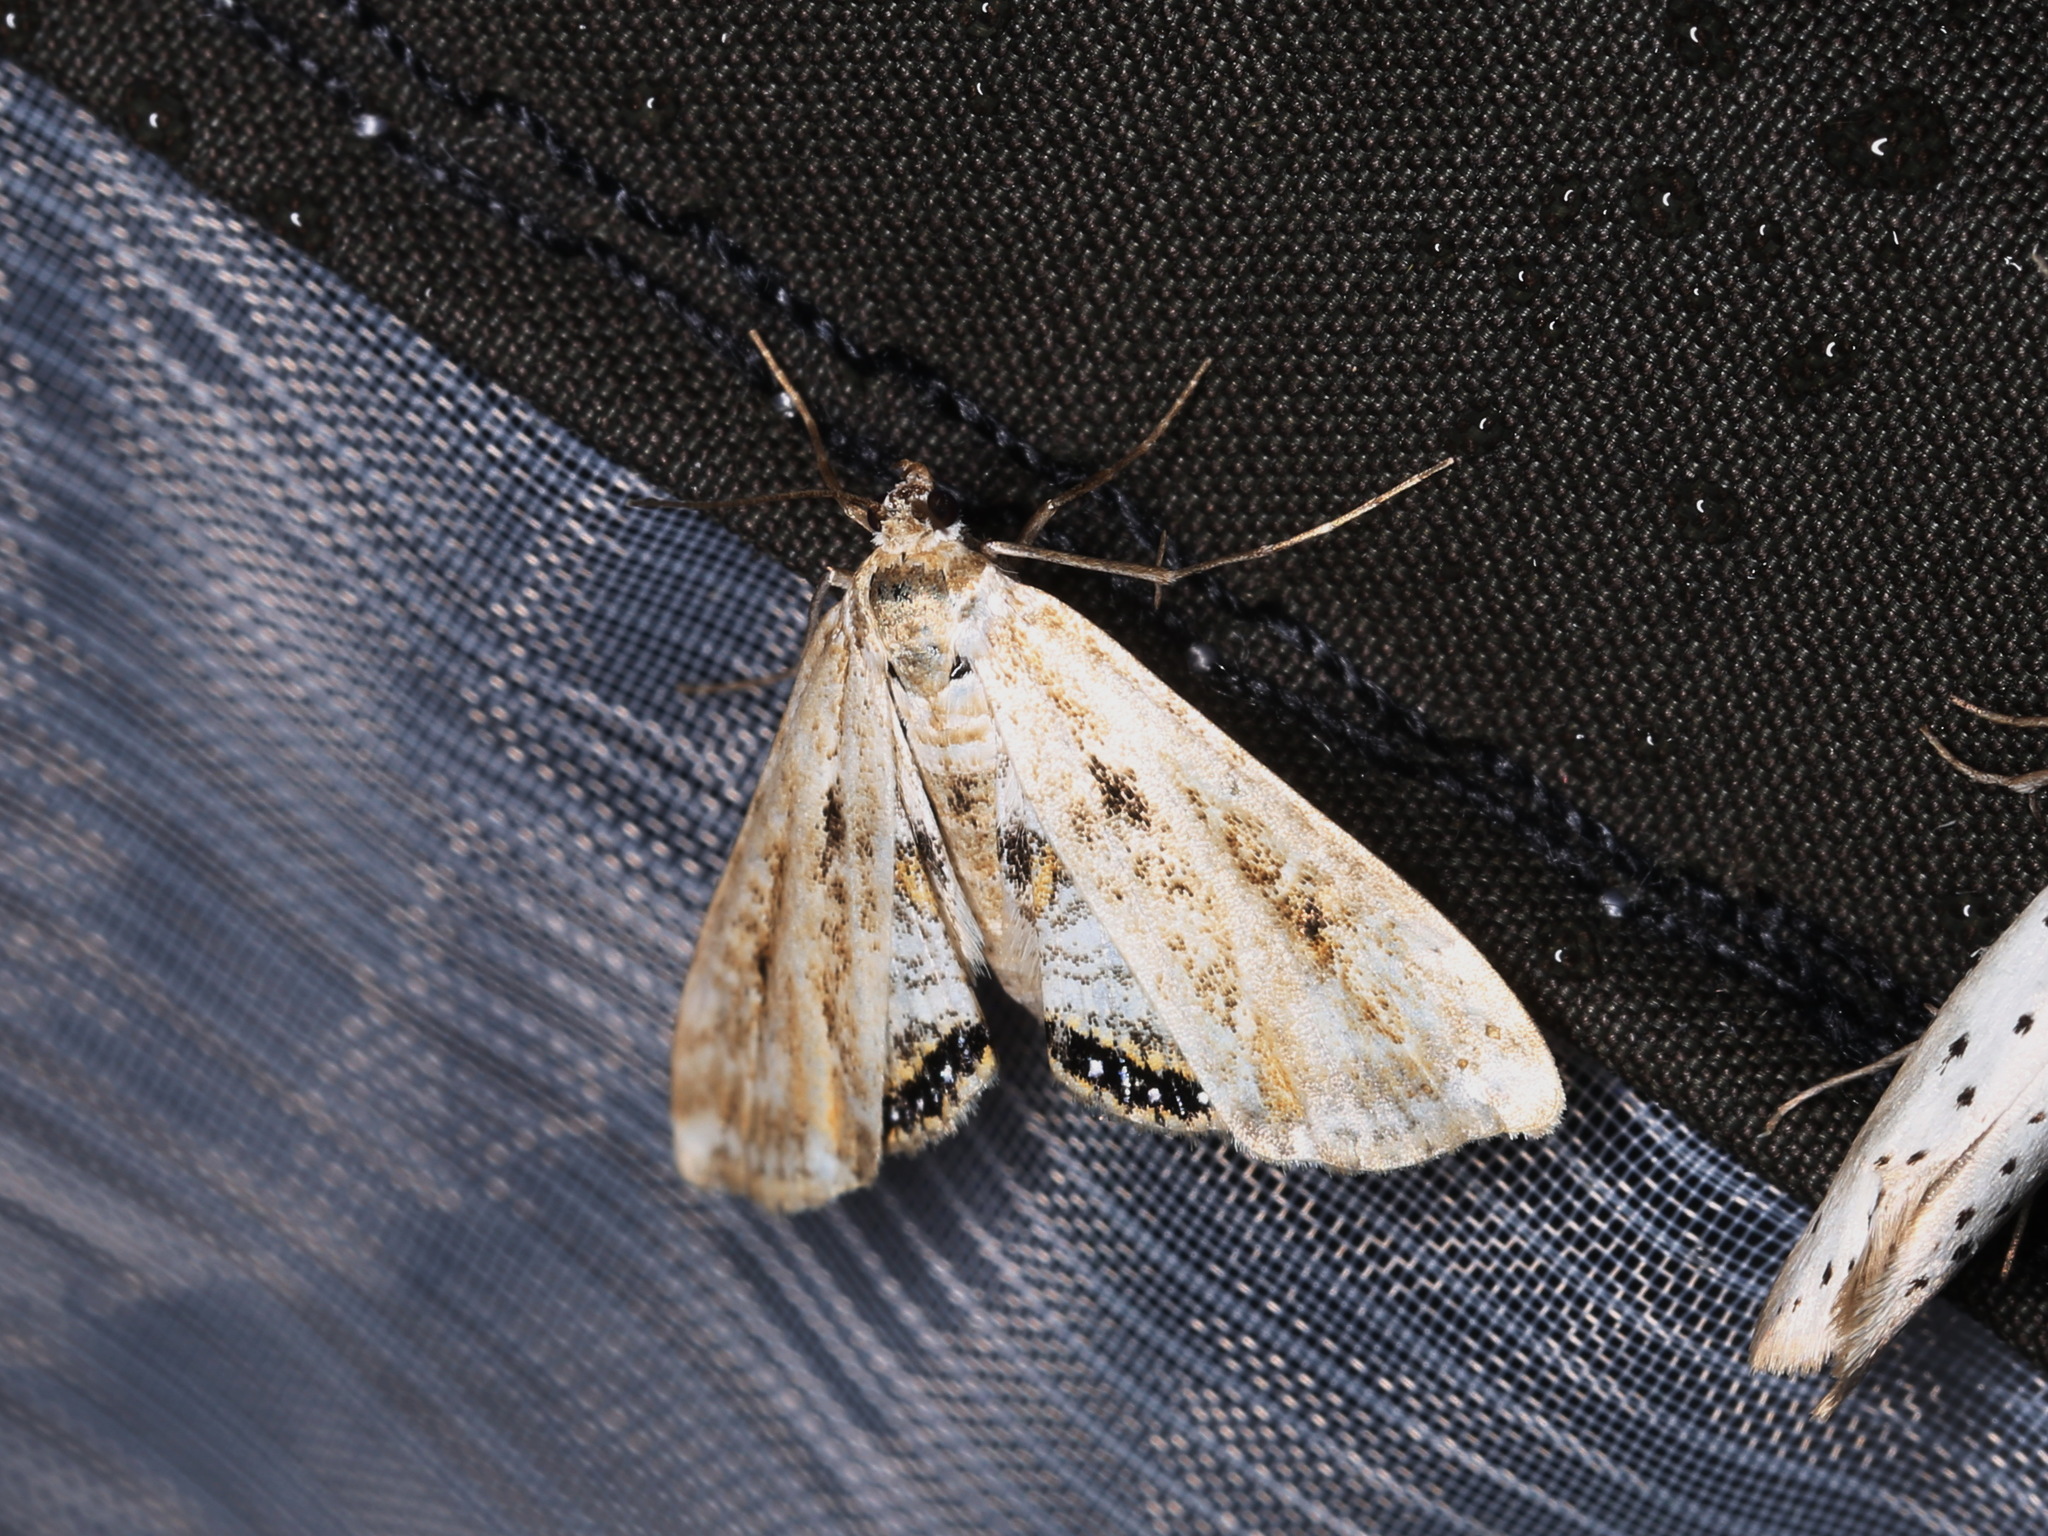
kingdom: Animalia
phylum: Arthropoda
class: Insecta
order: Lepidoptera
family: Crambidae
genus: Cataclysta
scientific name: Cataclysta lemnata
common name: Small china-mark
